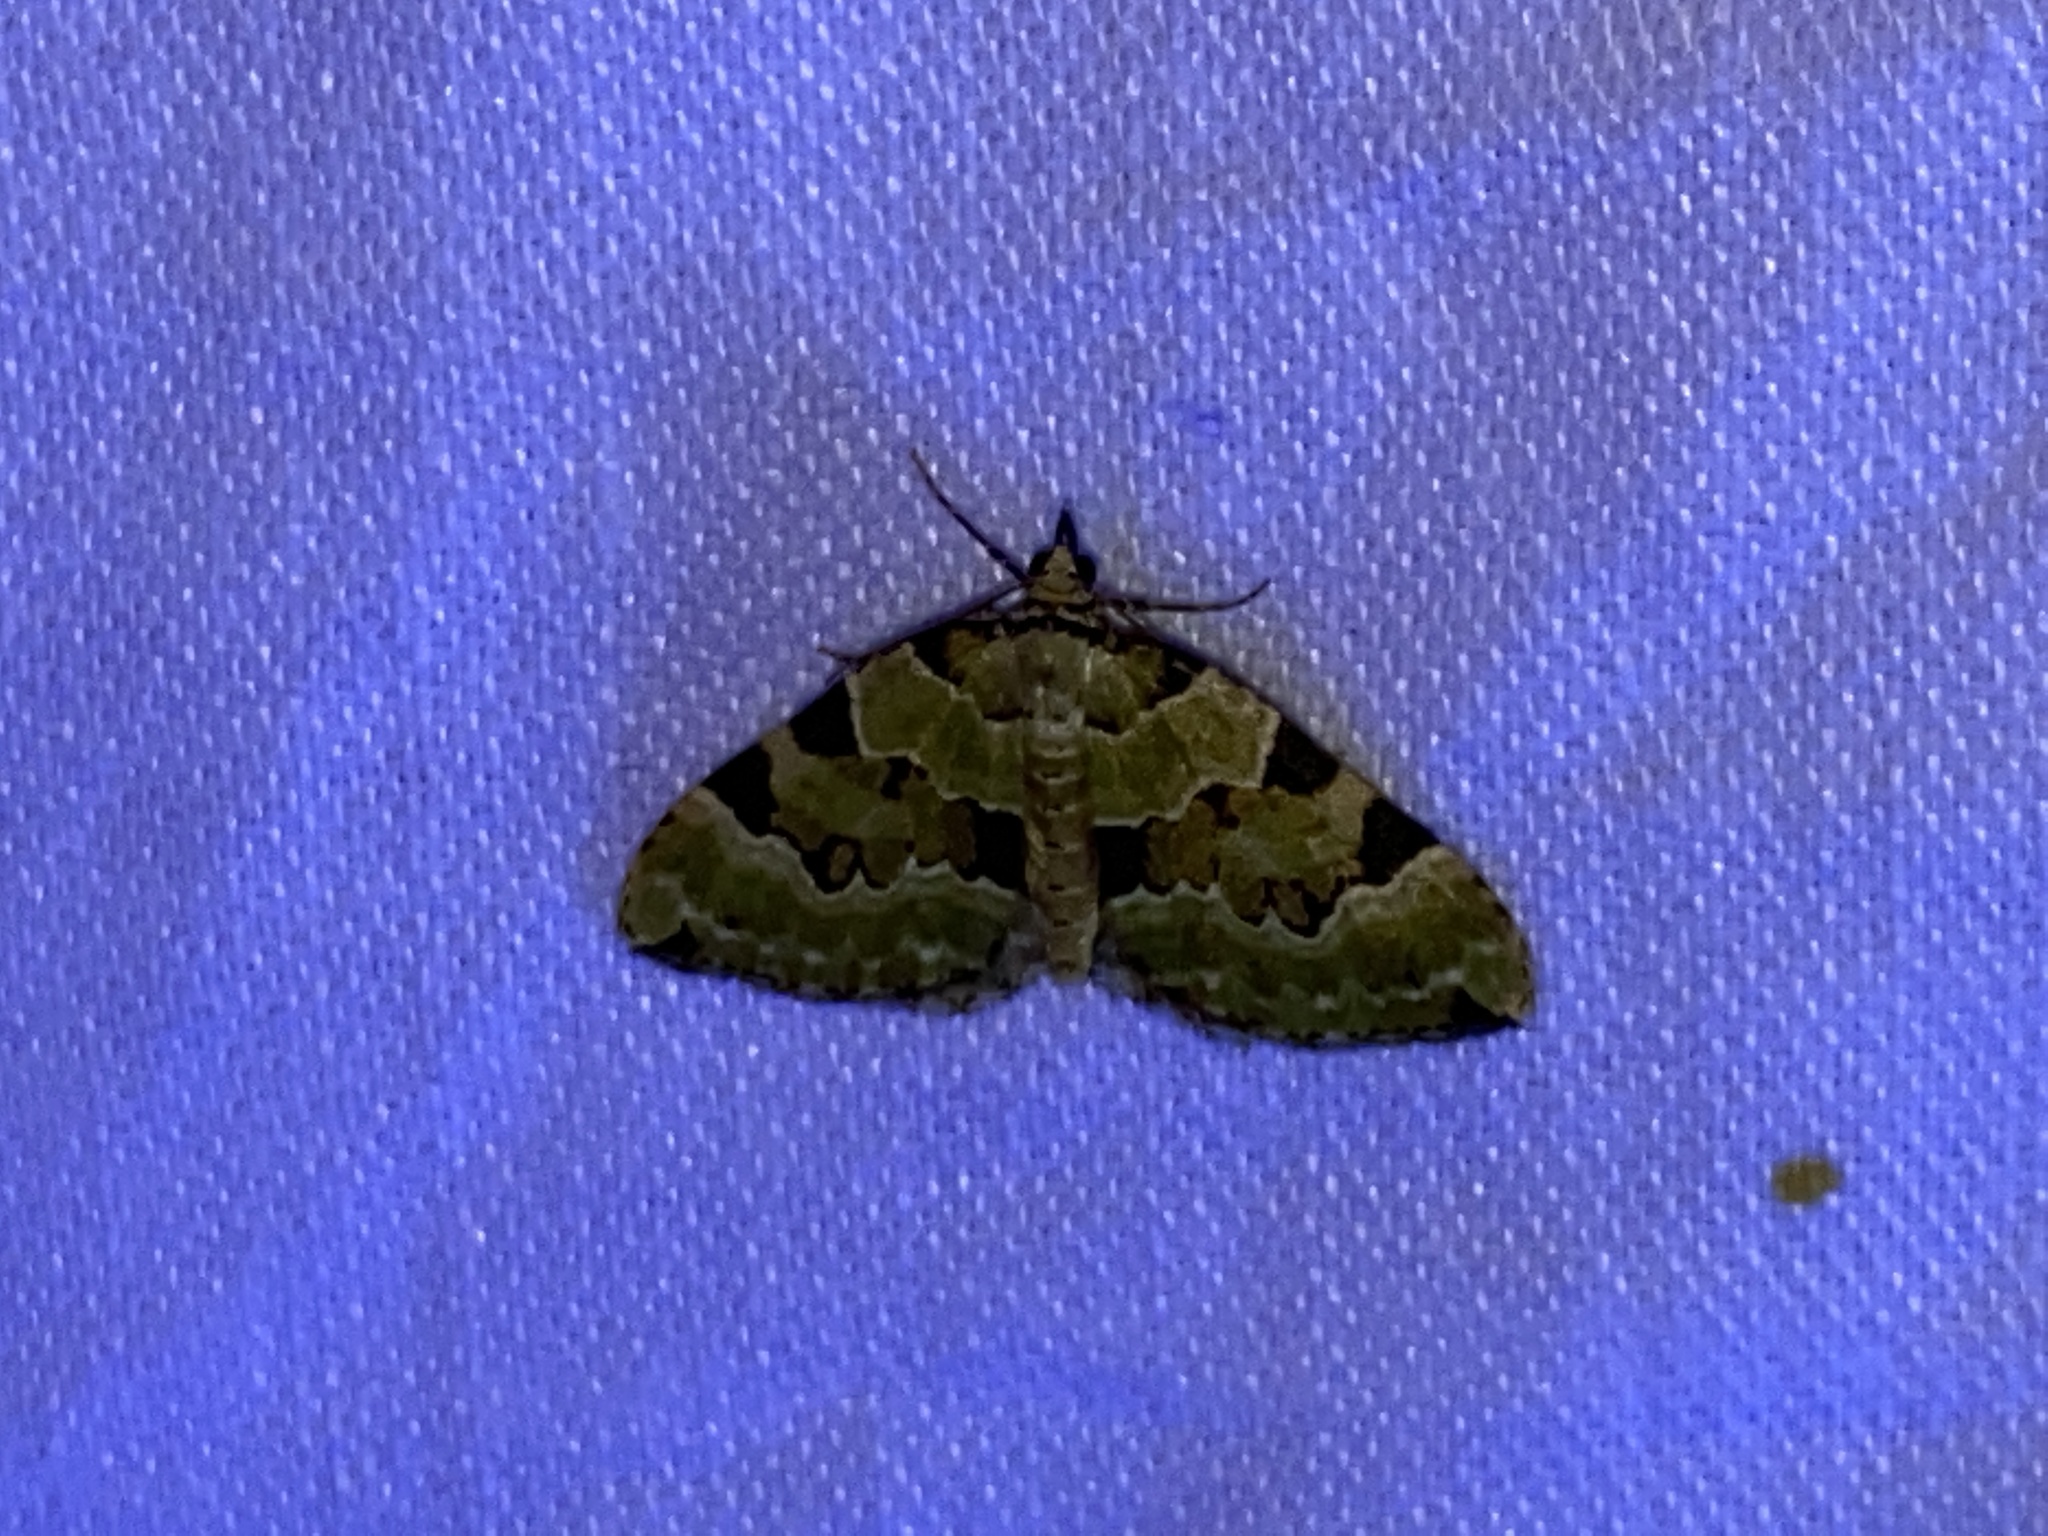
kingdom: Animalia
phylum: Arthropoda
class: Insecta
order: Lepidoptera
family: Geometridae
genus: Colostygia
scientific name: Colostygia pectinataria
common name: Green carpet
